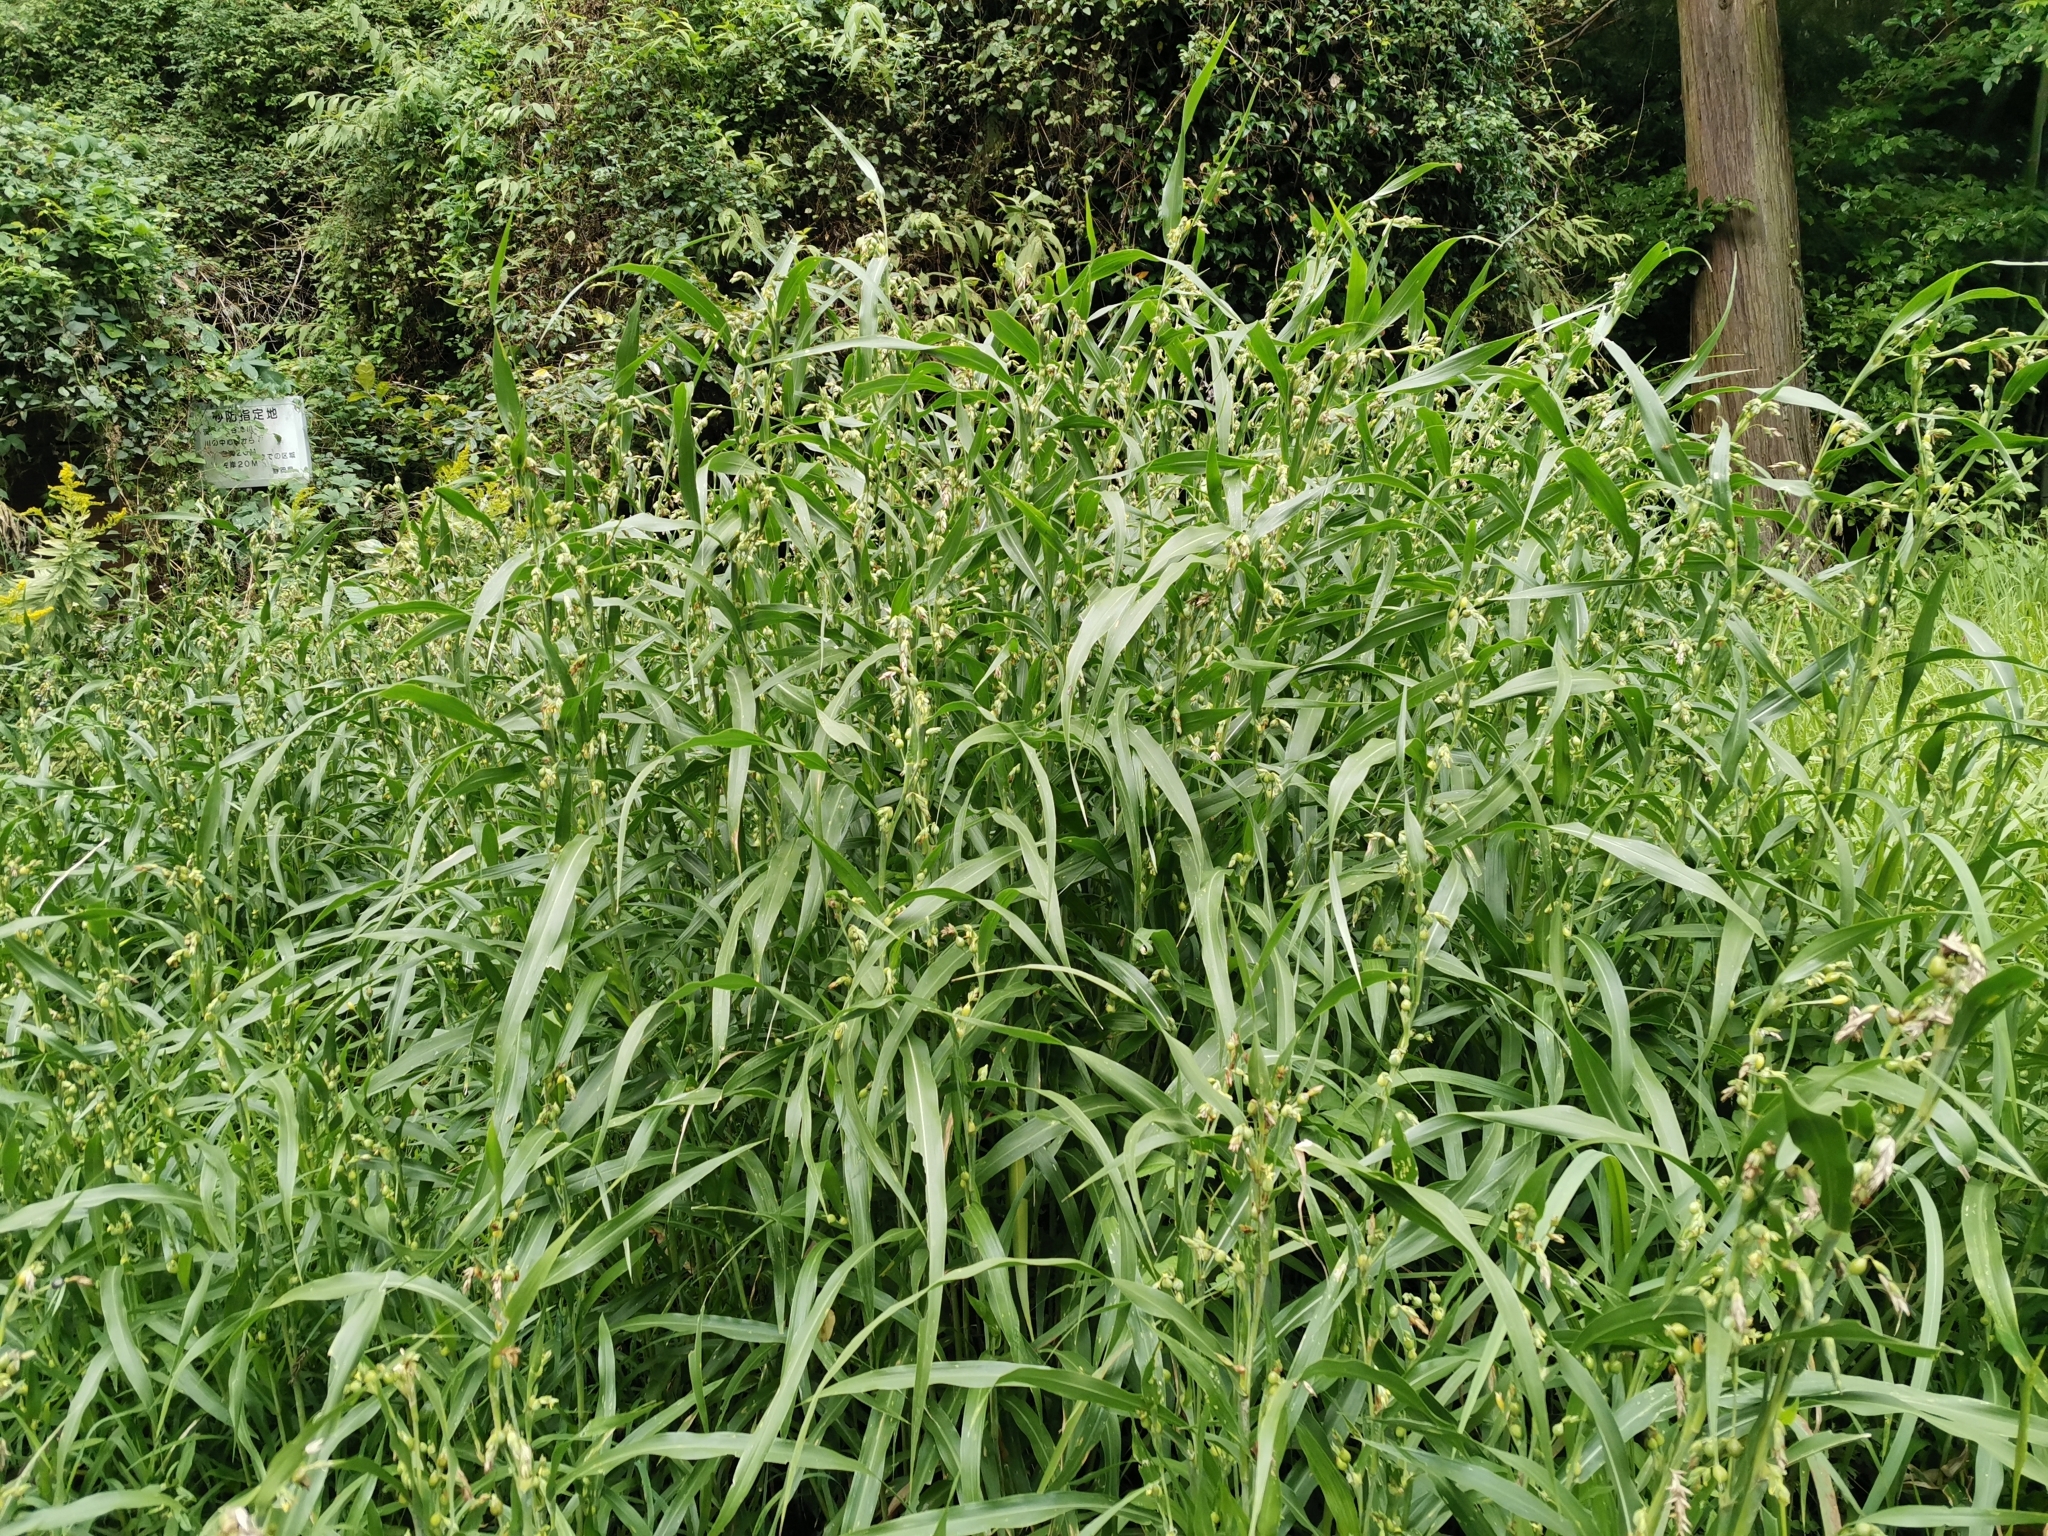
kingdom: Plantae
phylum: Tracheophyta
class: Liliopsida
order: Poales
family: Poaceae
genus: Coix
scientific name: Coix lacryma-jobi
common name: Job's tears
